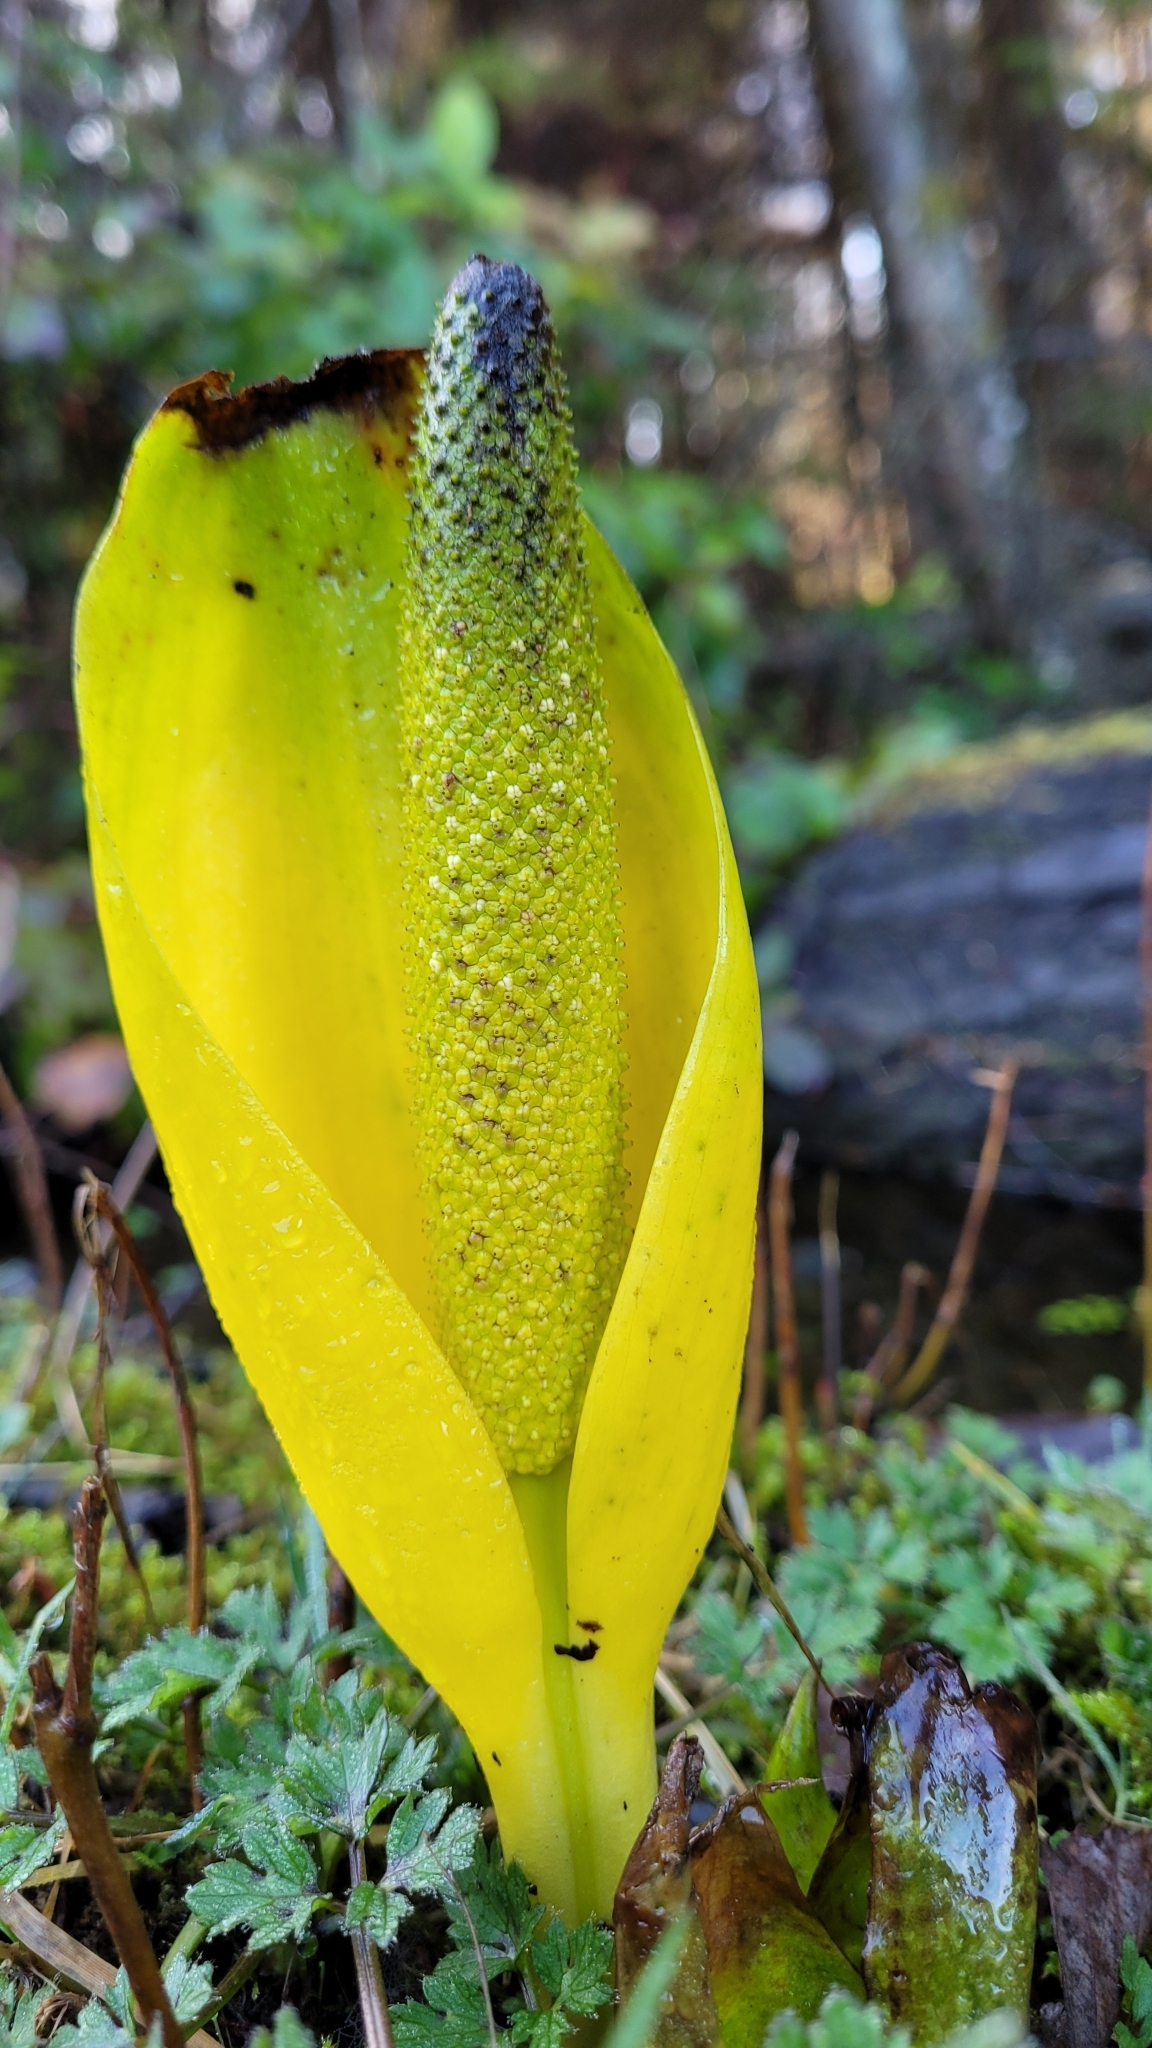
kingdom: Plantae
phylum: Tracheophyta
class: Liliopsida
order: Alismatales
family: Araceae
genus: Lysichiton
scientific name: Lysichiton americanus
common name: American skunk cabbage
